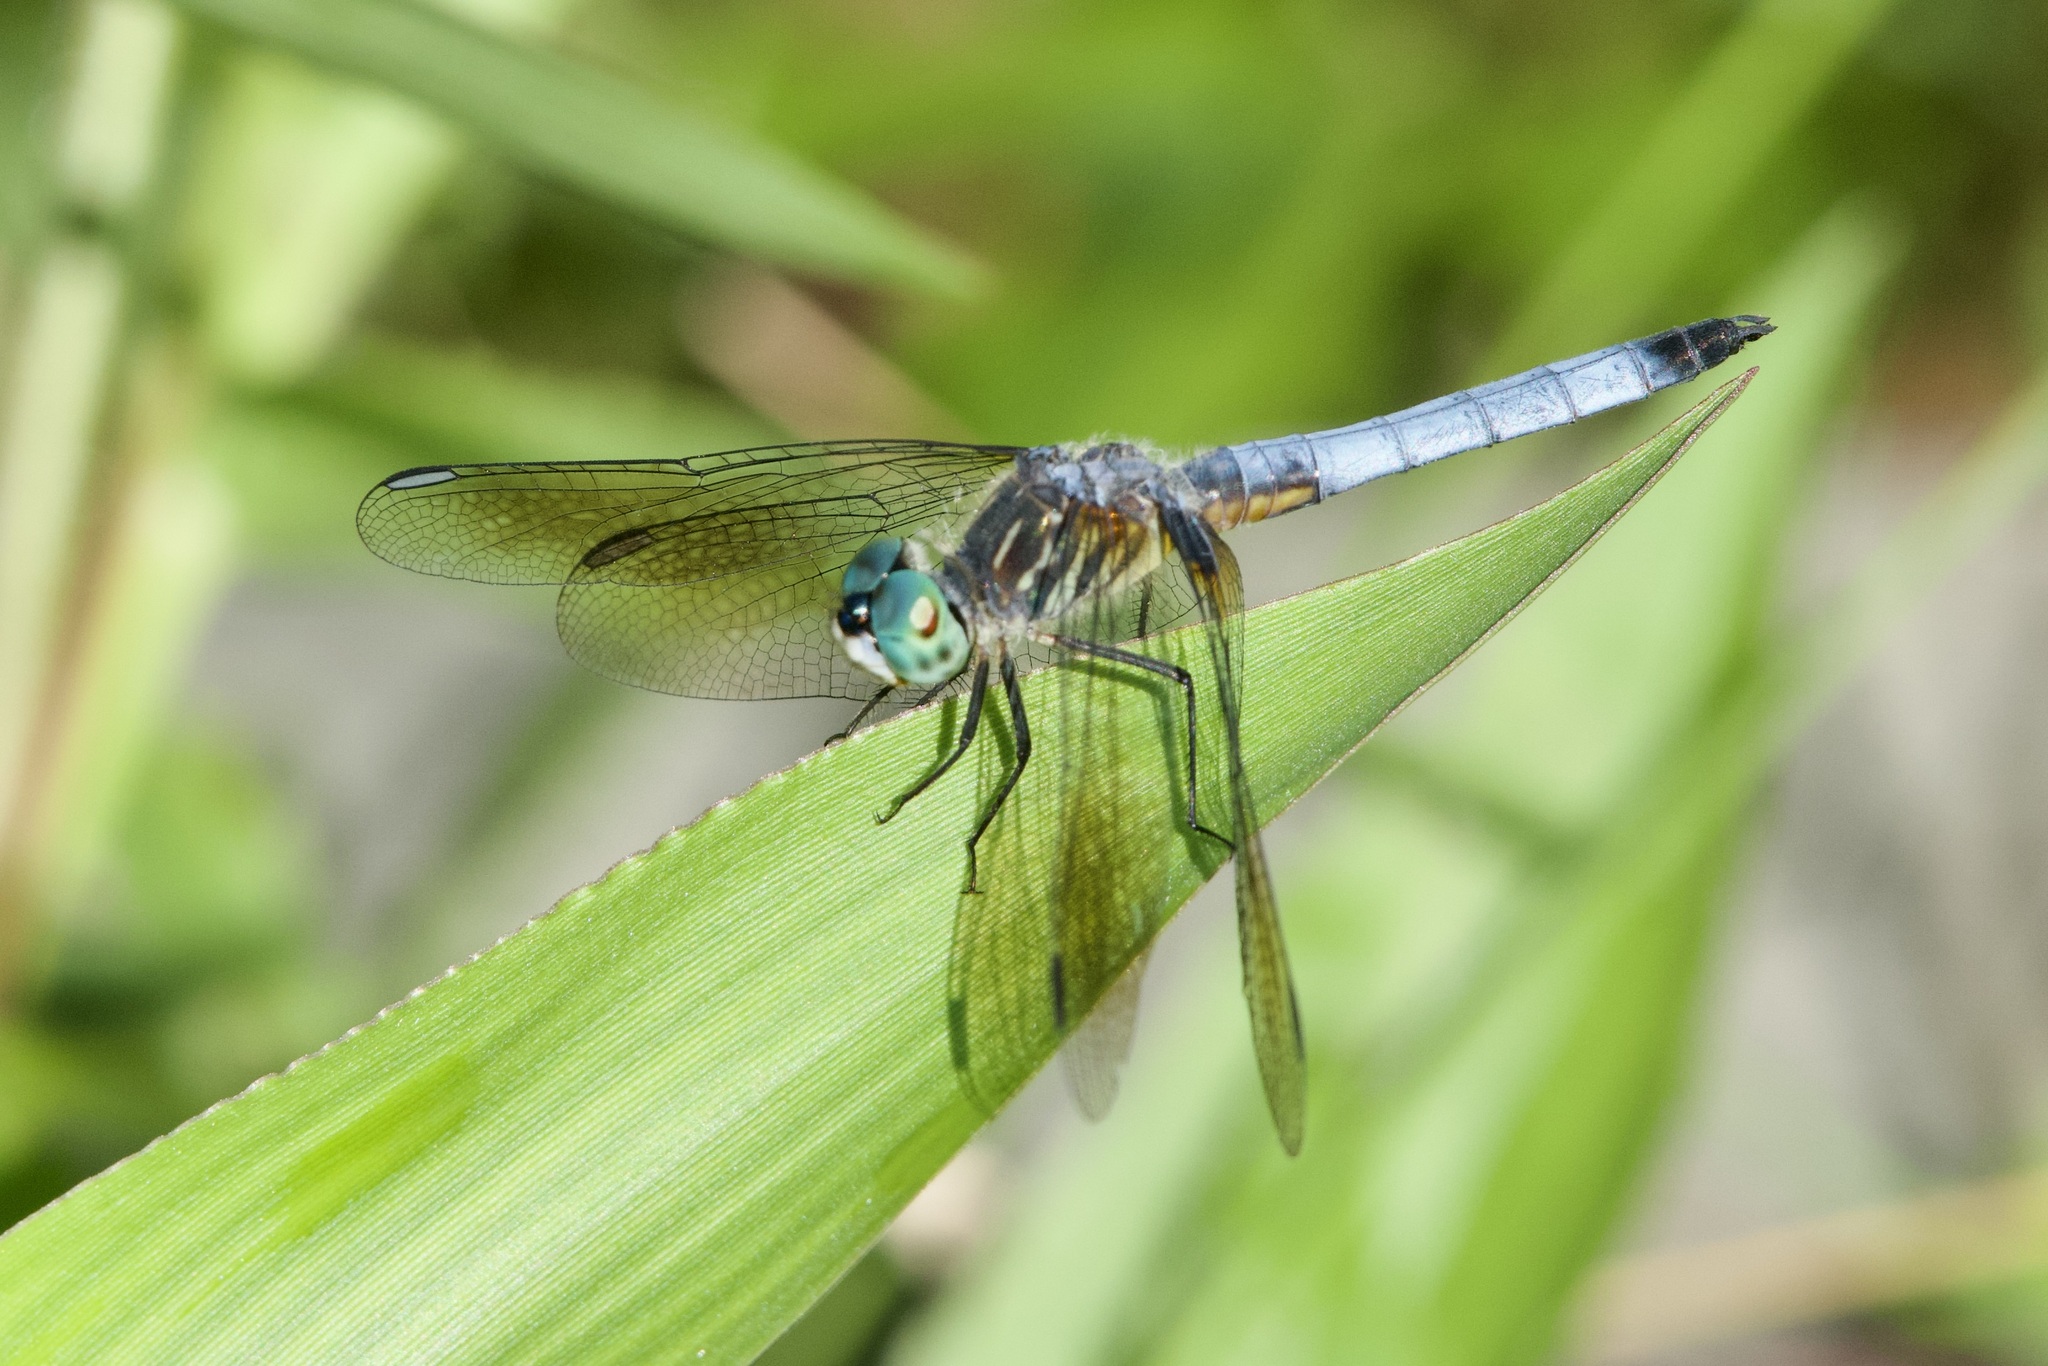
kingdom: Animalia
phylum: Arthropoda
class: Insecta
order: Odonata
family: Libellulidae
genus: Pachydiplax
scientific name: Pachydiplax longipennis
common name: Blue dasher
